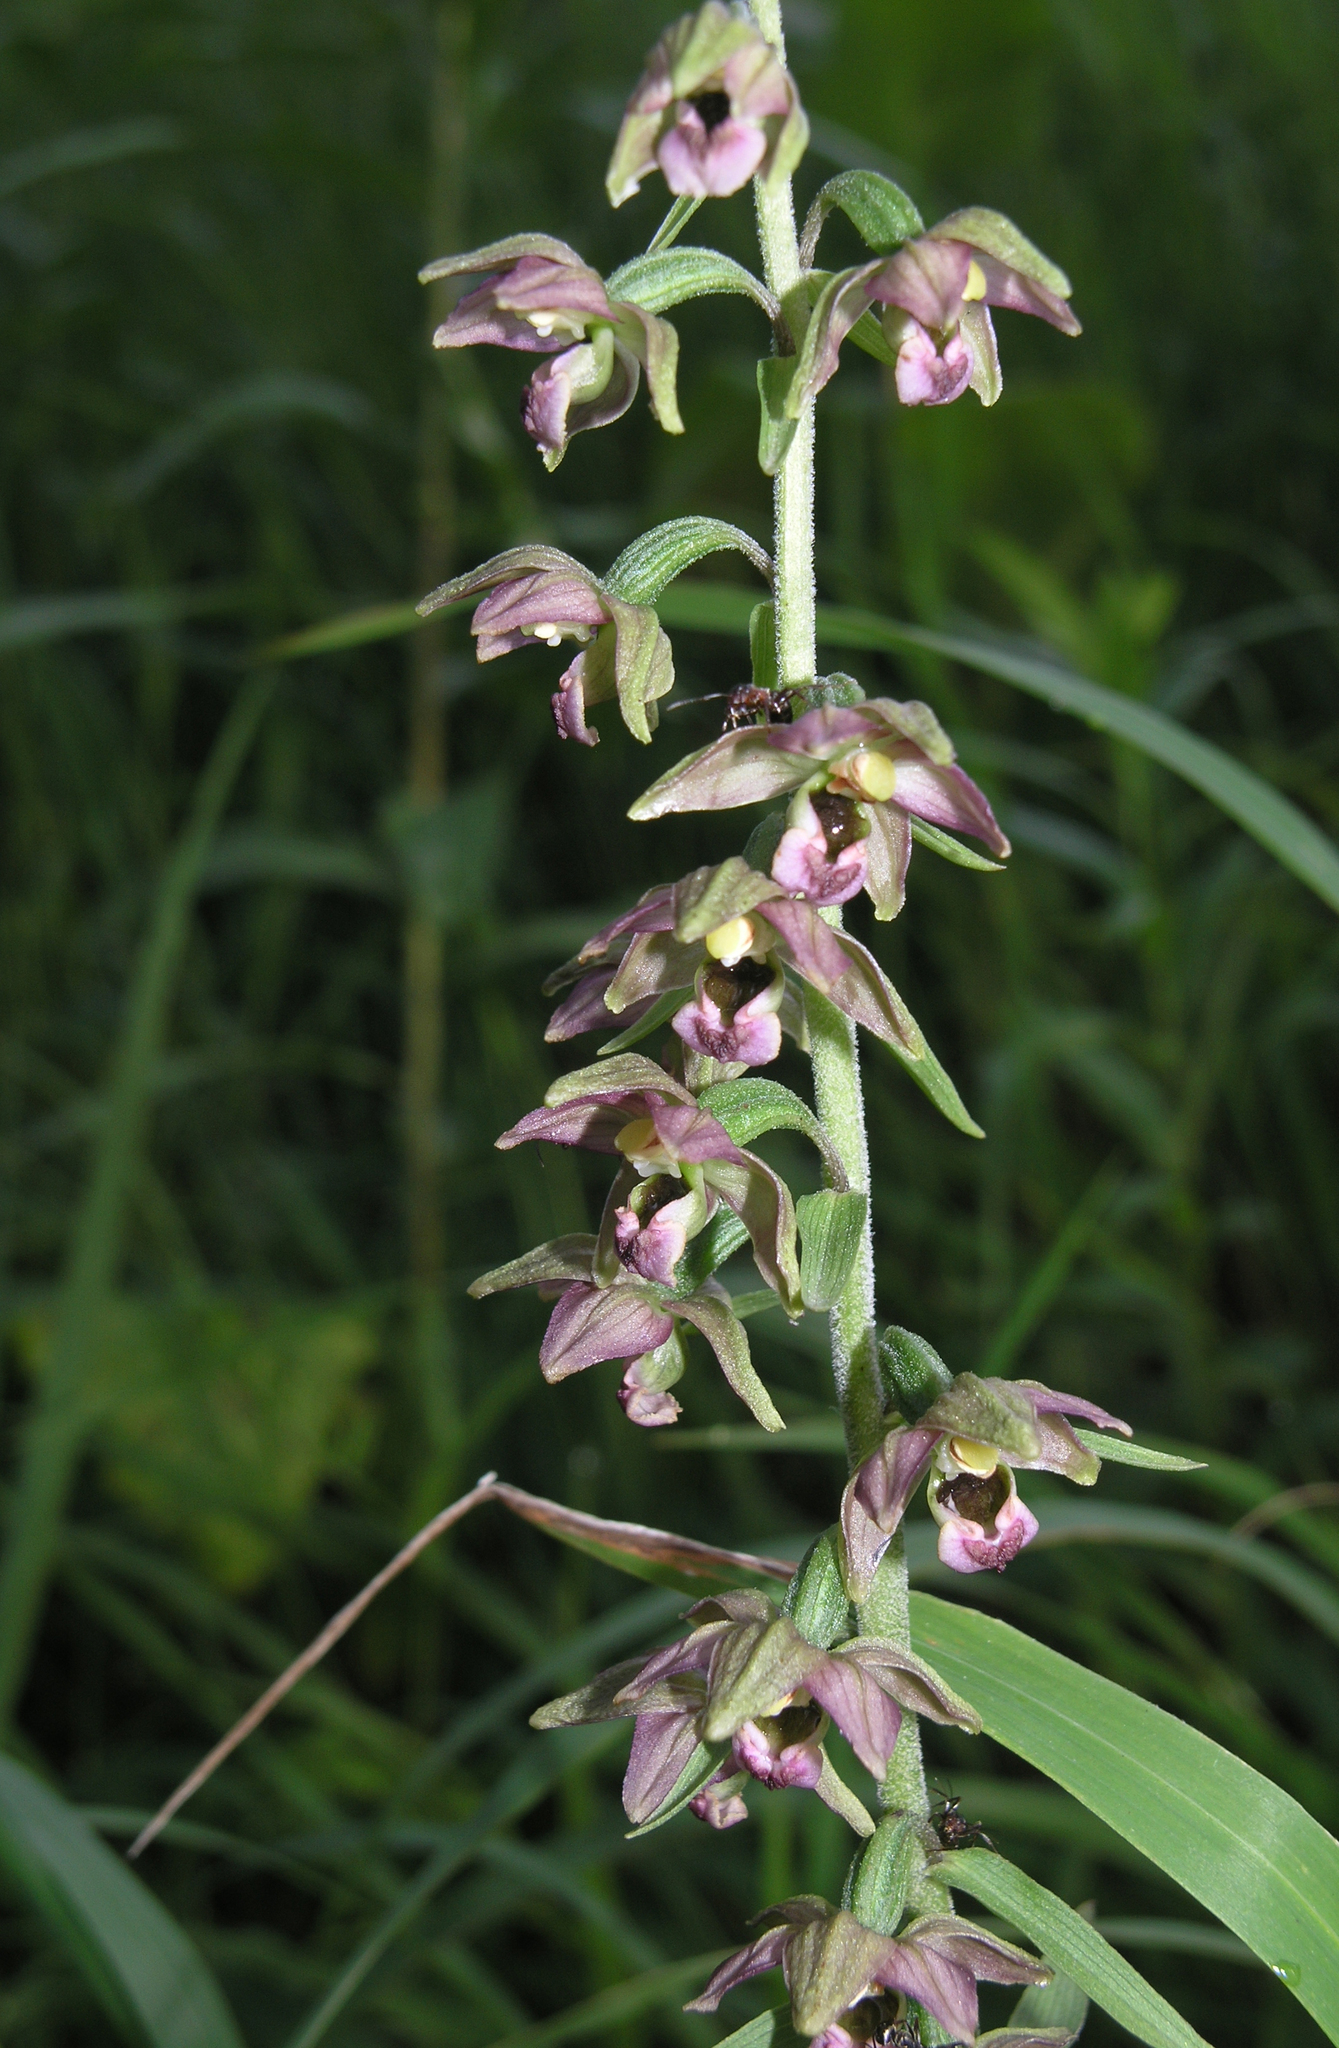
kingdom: Plantae
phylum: Tracheophyta
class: Liliopsida
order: Asparagales
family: Orchidaceae
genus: Epipactis
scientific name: Epipactis helleborine
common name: Broad-leaved helleborine
